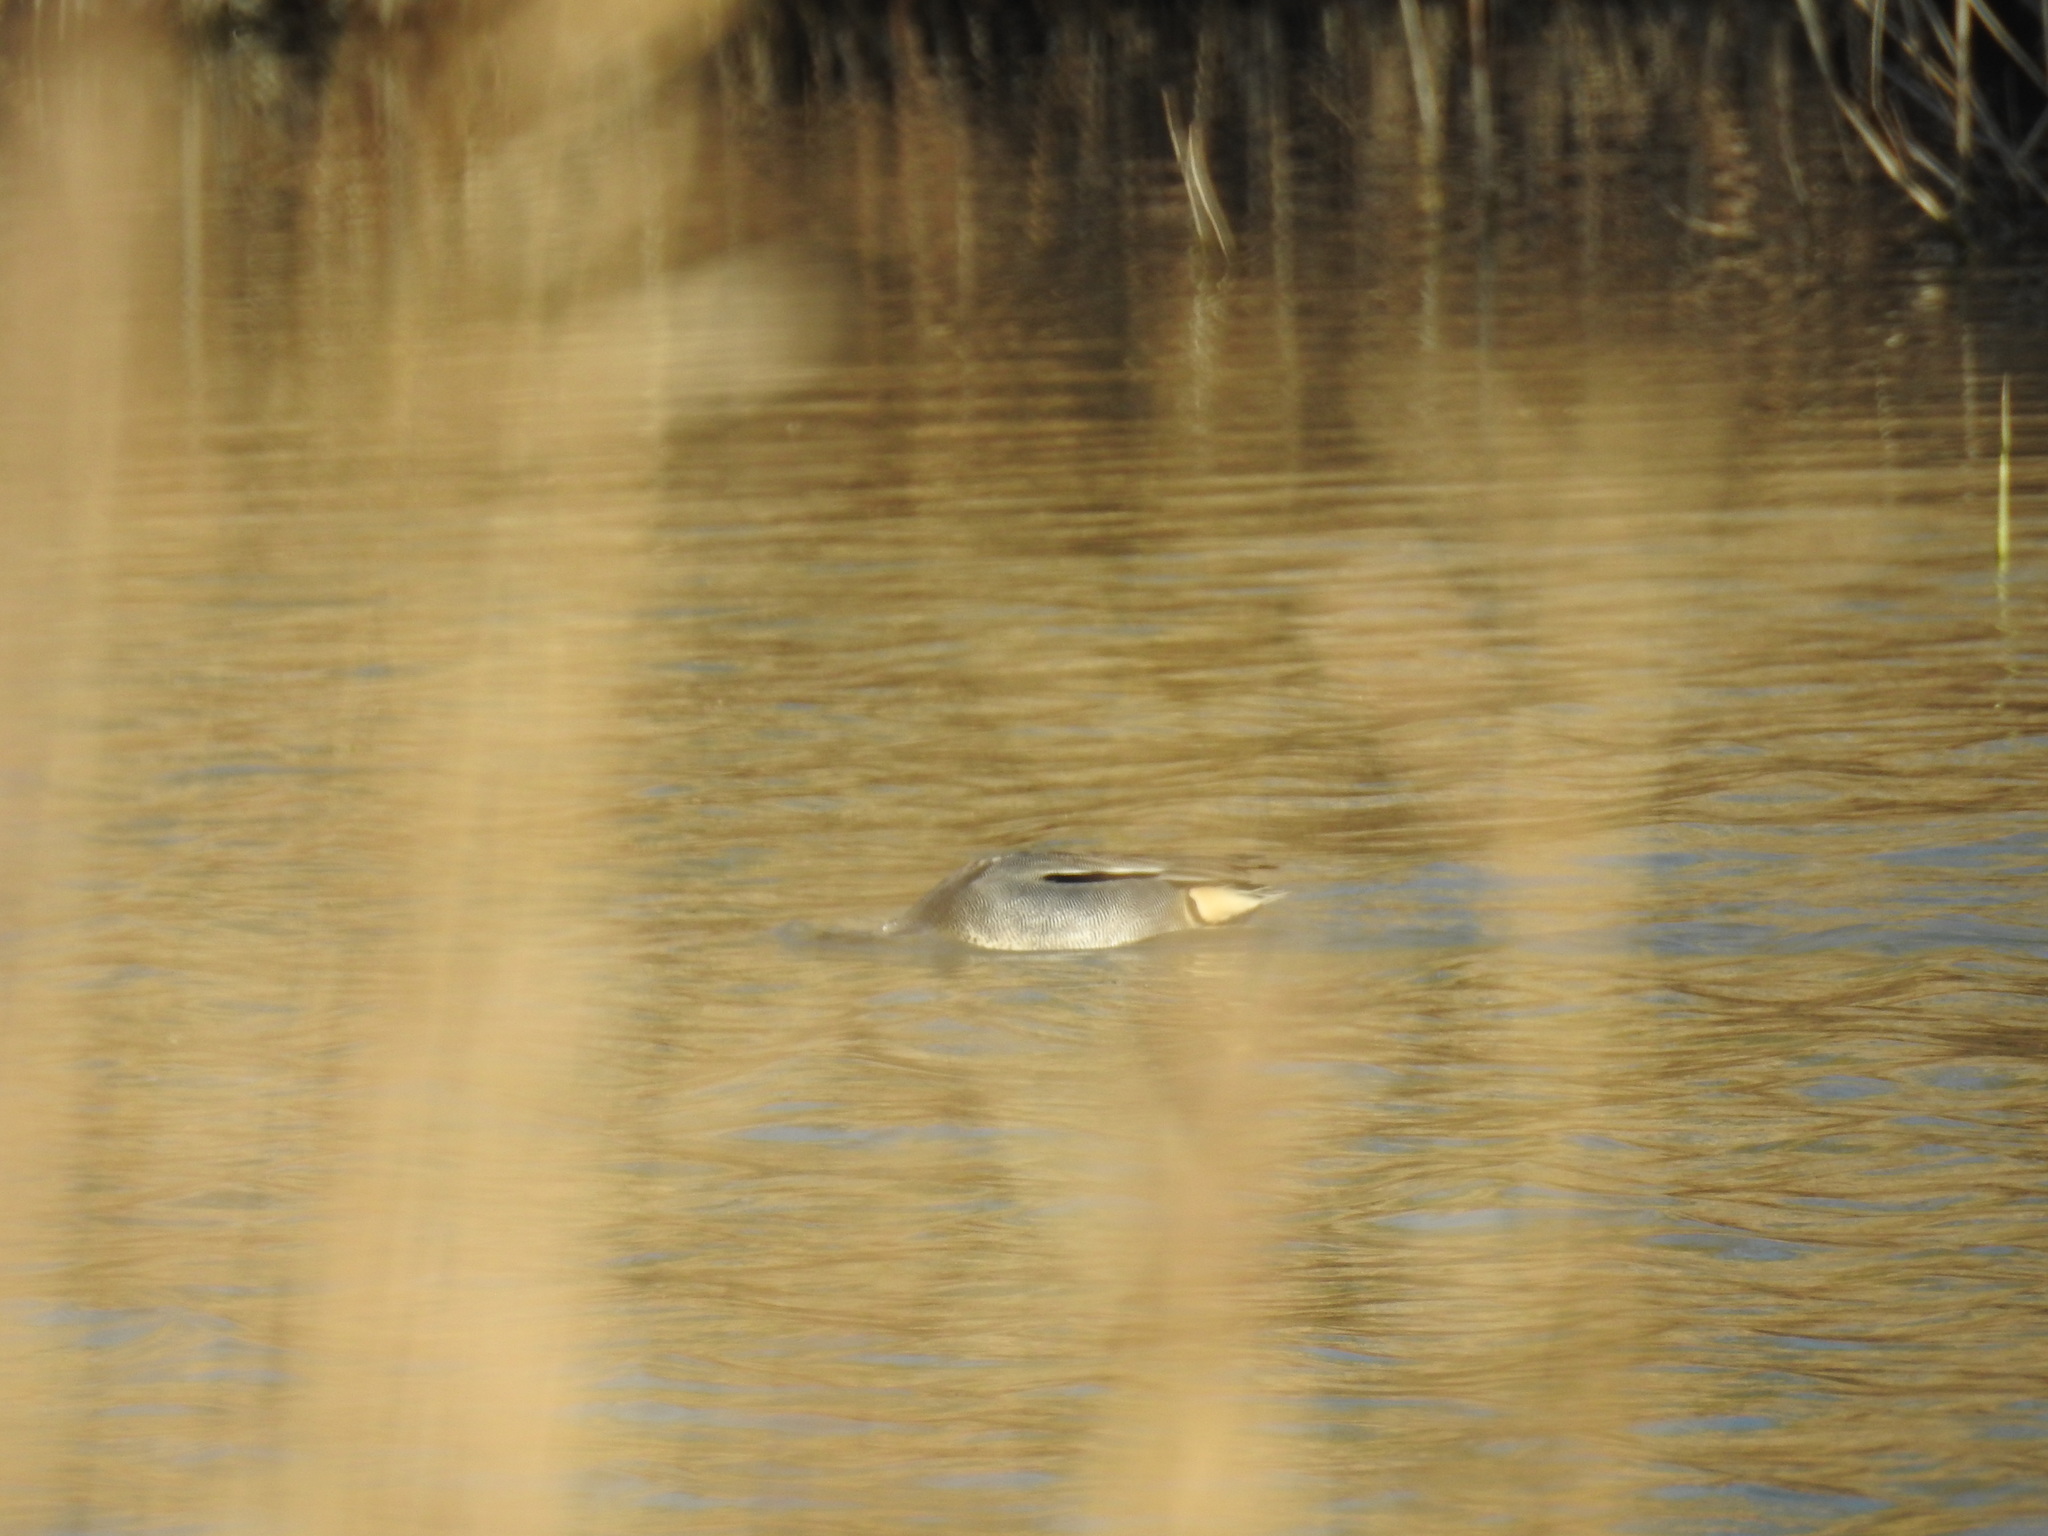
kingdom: Animalia
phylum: Chordata
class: Aves
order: Anseriformes
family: Anatidae
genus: Anas
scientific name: Anas crecca
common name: Eurasian teal
